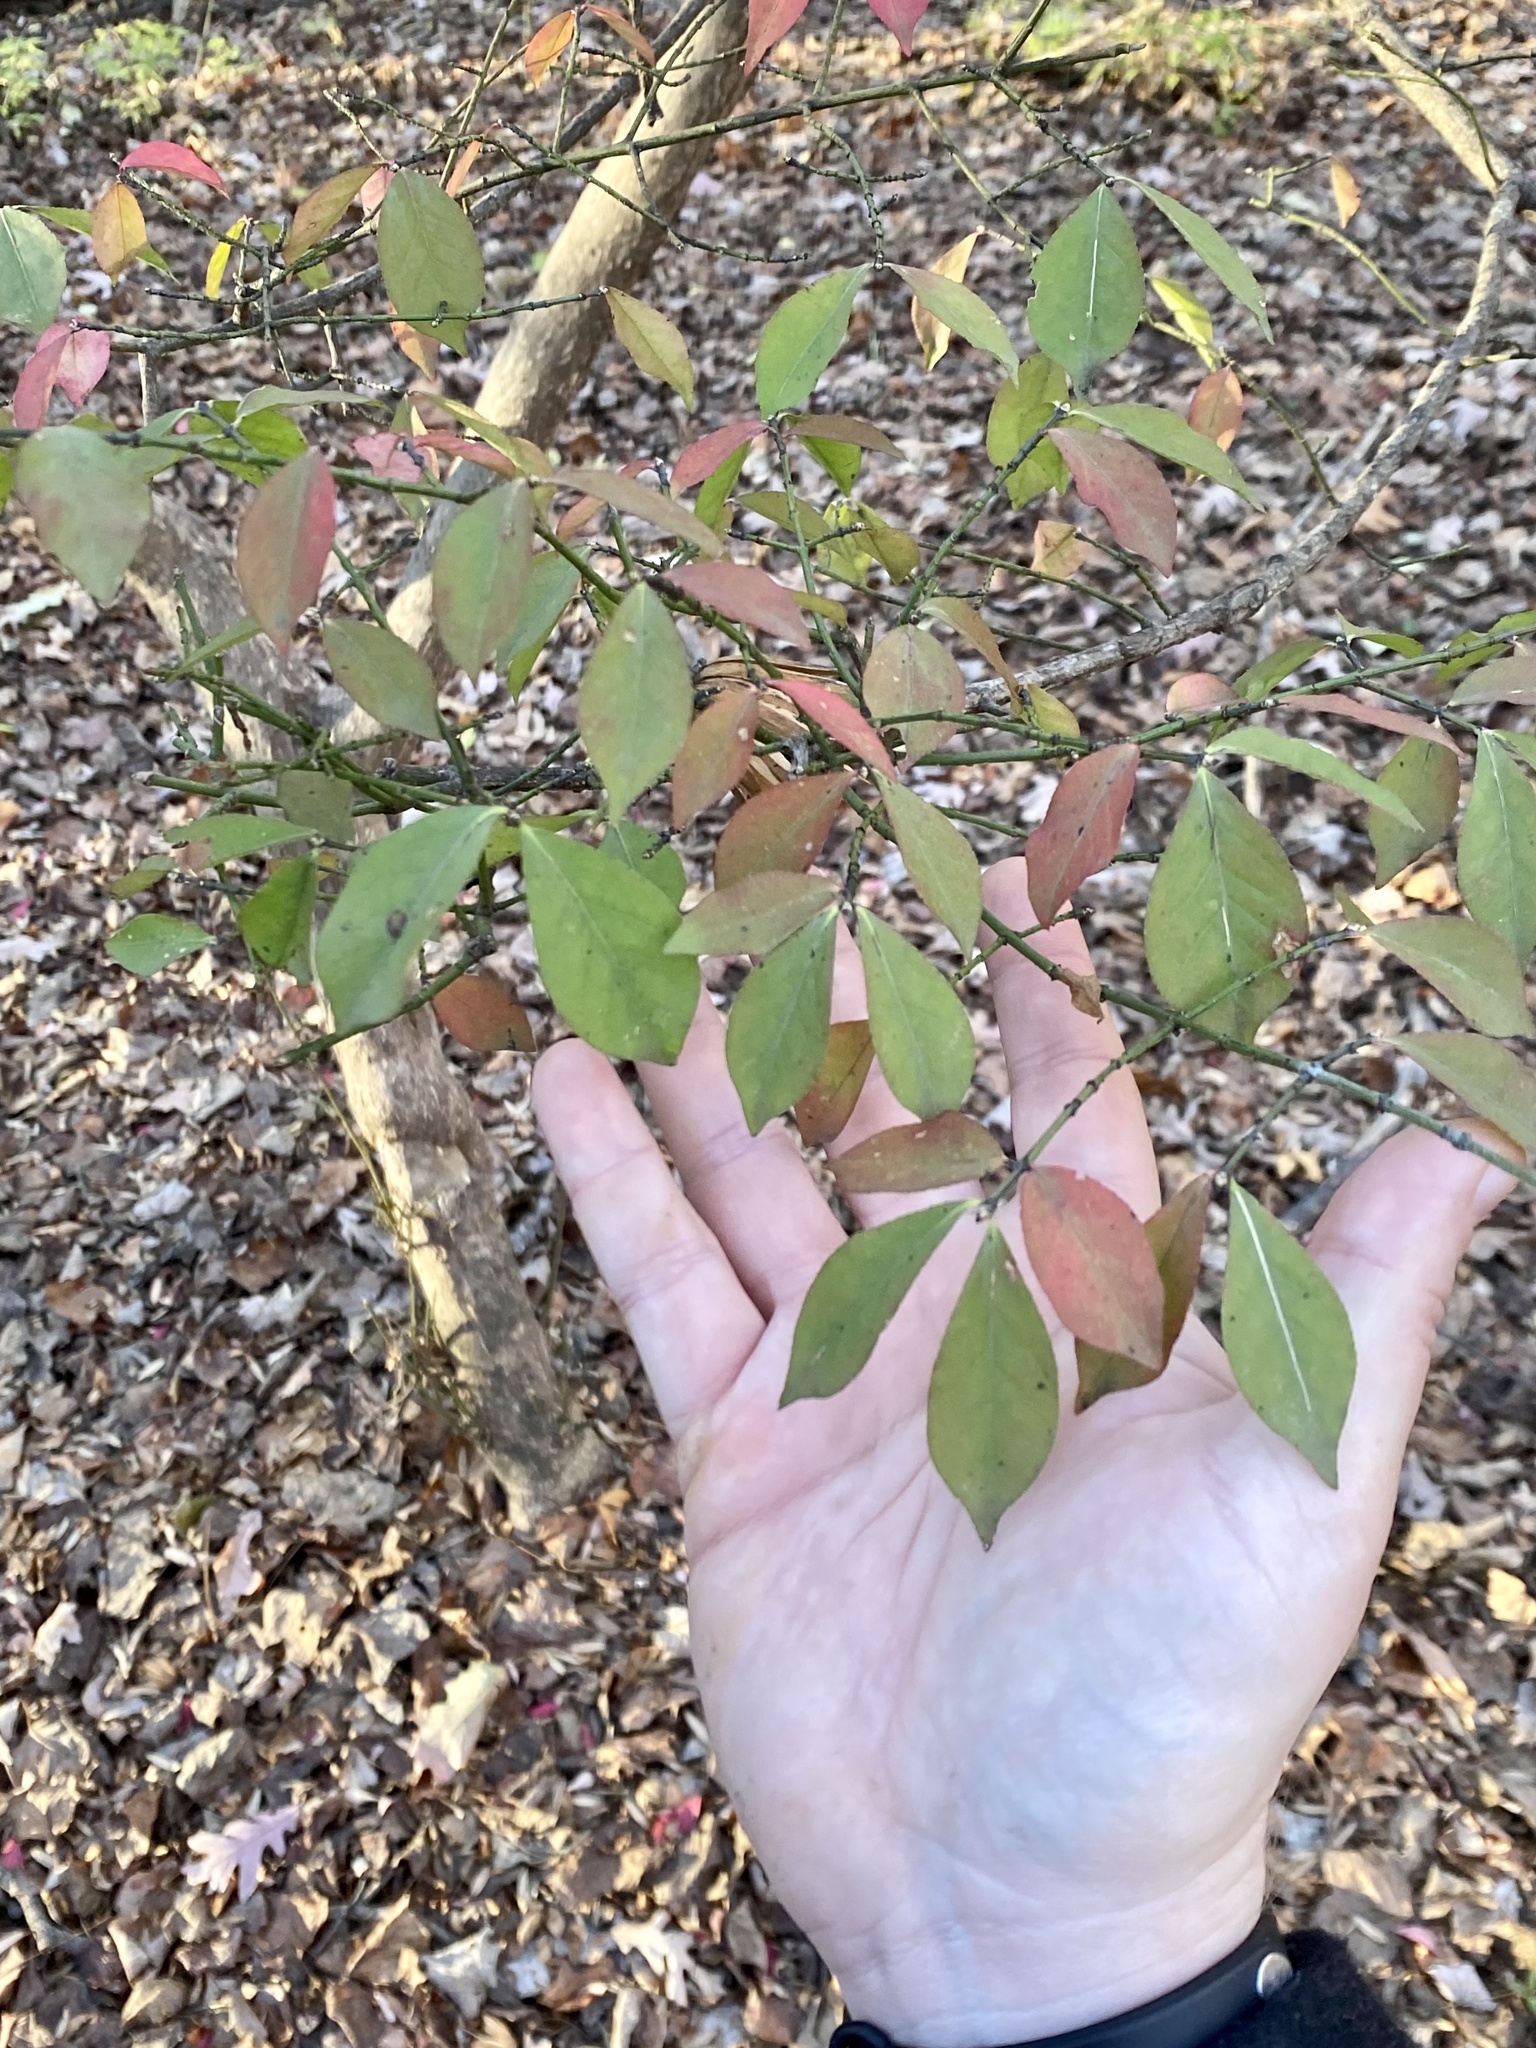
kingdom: Plantae
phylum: Tracheophyta
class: Magnoliopsida
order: Celastrales
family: Celastraceae
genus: Euonymus
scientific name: Euonymus alatus
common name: Winged euonymus
